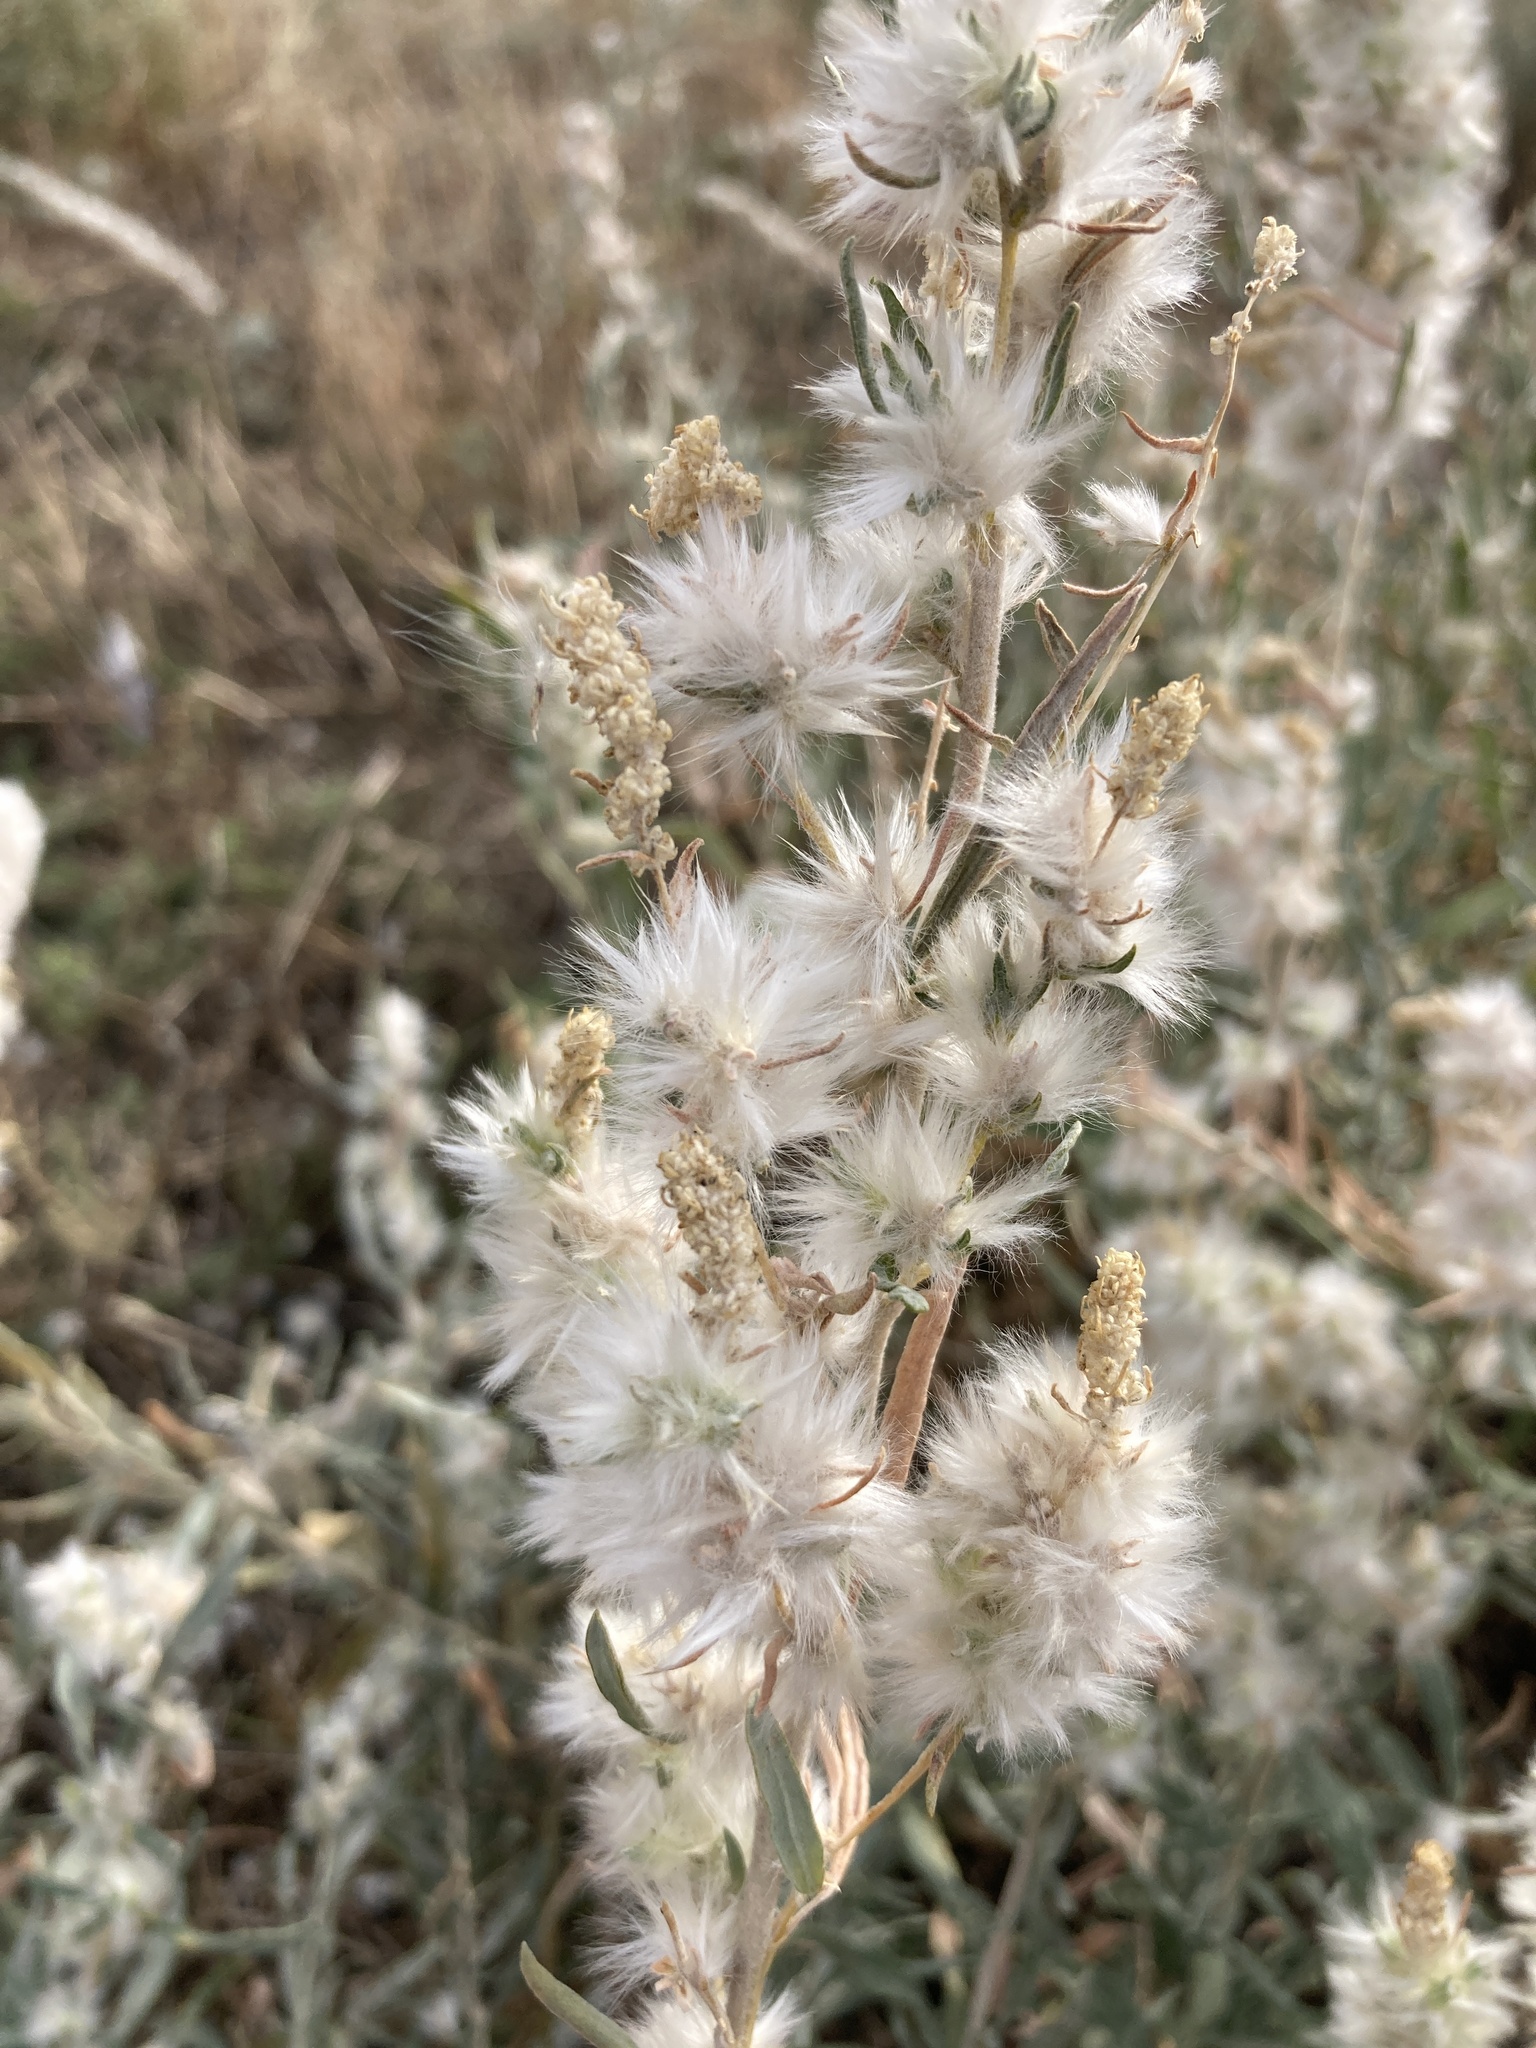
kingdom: Plantae
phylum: Tracheophyta
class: Magnoliopsida
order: Caryophyllales
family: Amaranthaceae
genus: Krascheninnikovia
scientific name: Krascheninnikovia ceratoides
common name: Pamirian winterfat
